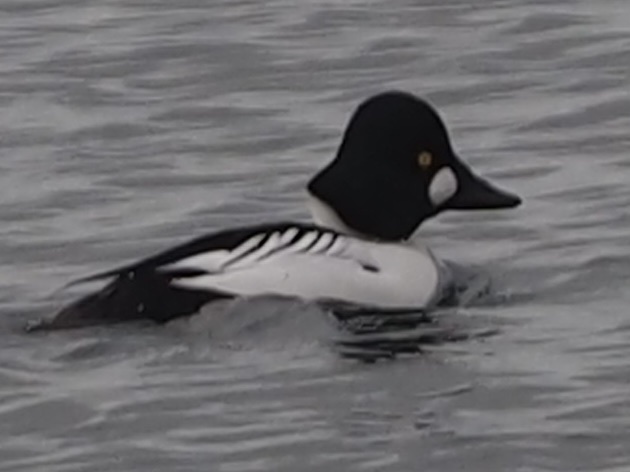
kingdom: Animalia
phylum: Chordata
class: Aves
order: Anseriformes
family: Anatidae
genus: Bucephala
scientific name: Bucephala clangula
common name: Common goldeneye
